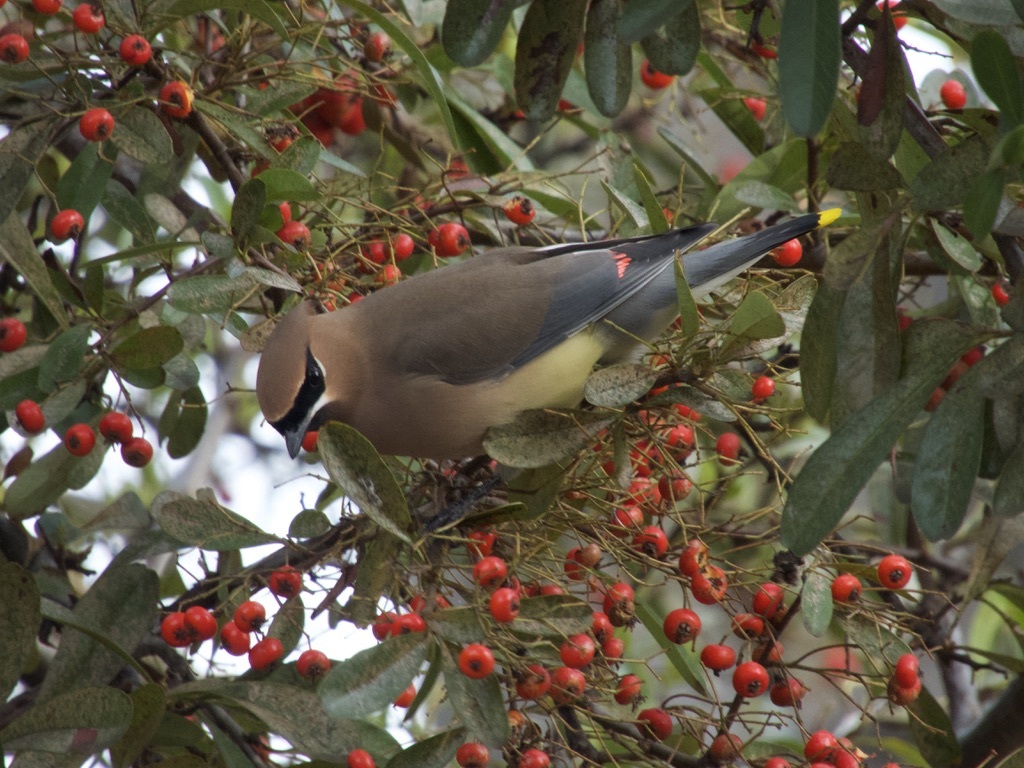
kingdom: Animalia
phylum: Chordata
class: Aves
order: Passeriformes
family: Bombycillidae
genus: Bombycilla
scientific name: Bombycilla cedrorum
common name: Cedar waxwing
